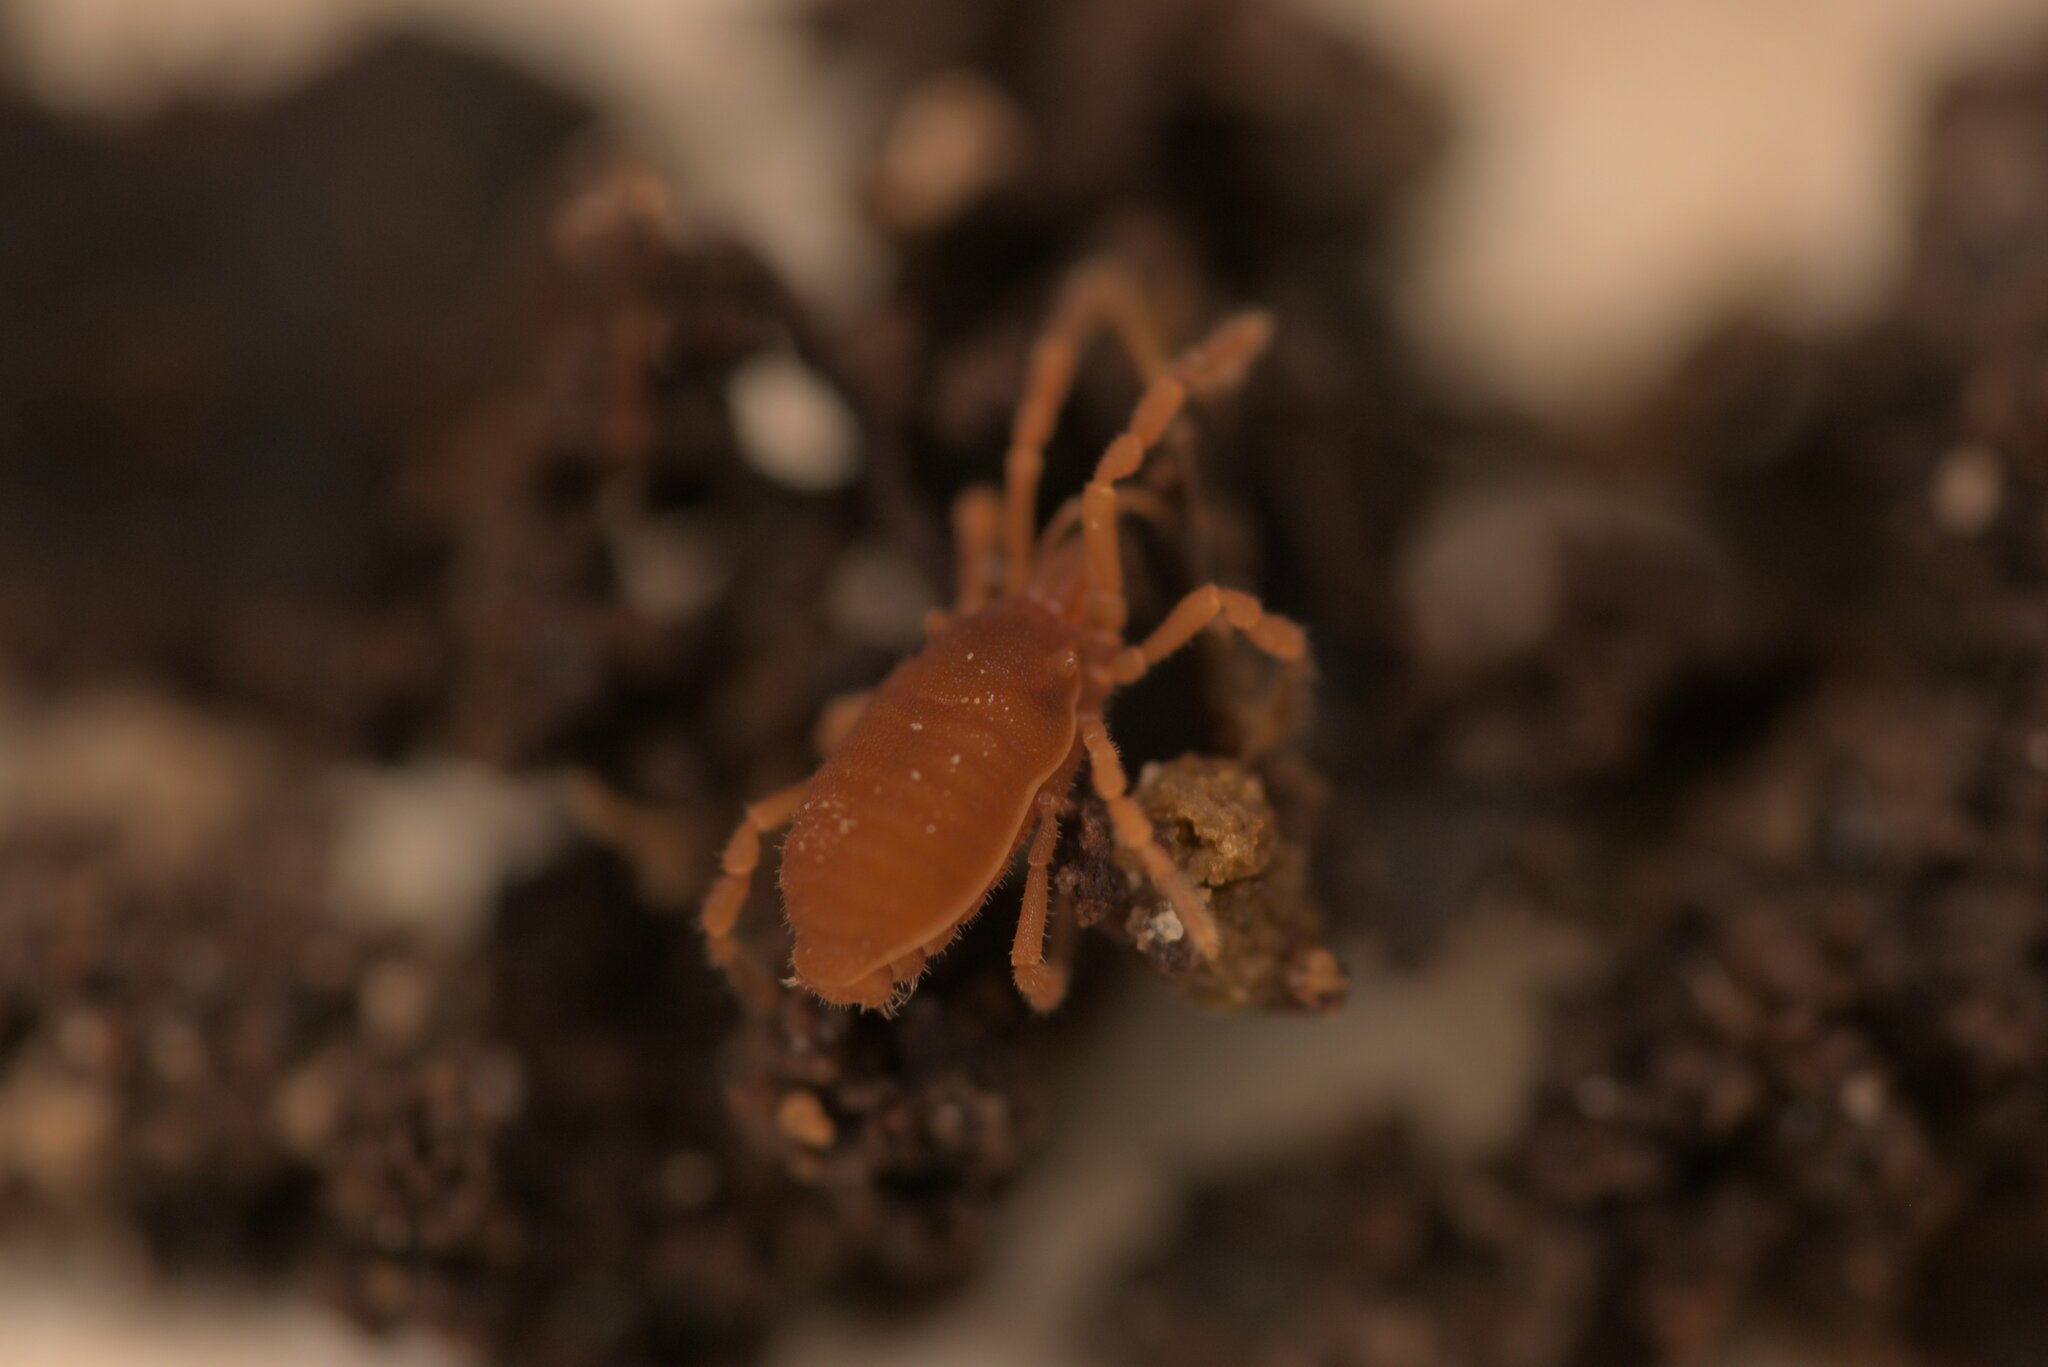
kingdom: Animalia
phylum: Arthropoda
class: Arachnida
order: Opiliones
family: Sironidae
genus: Siro
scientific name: Siro rubens
